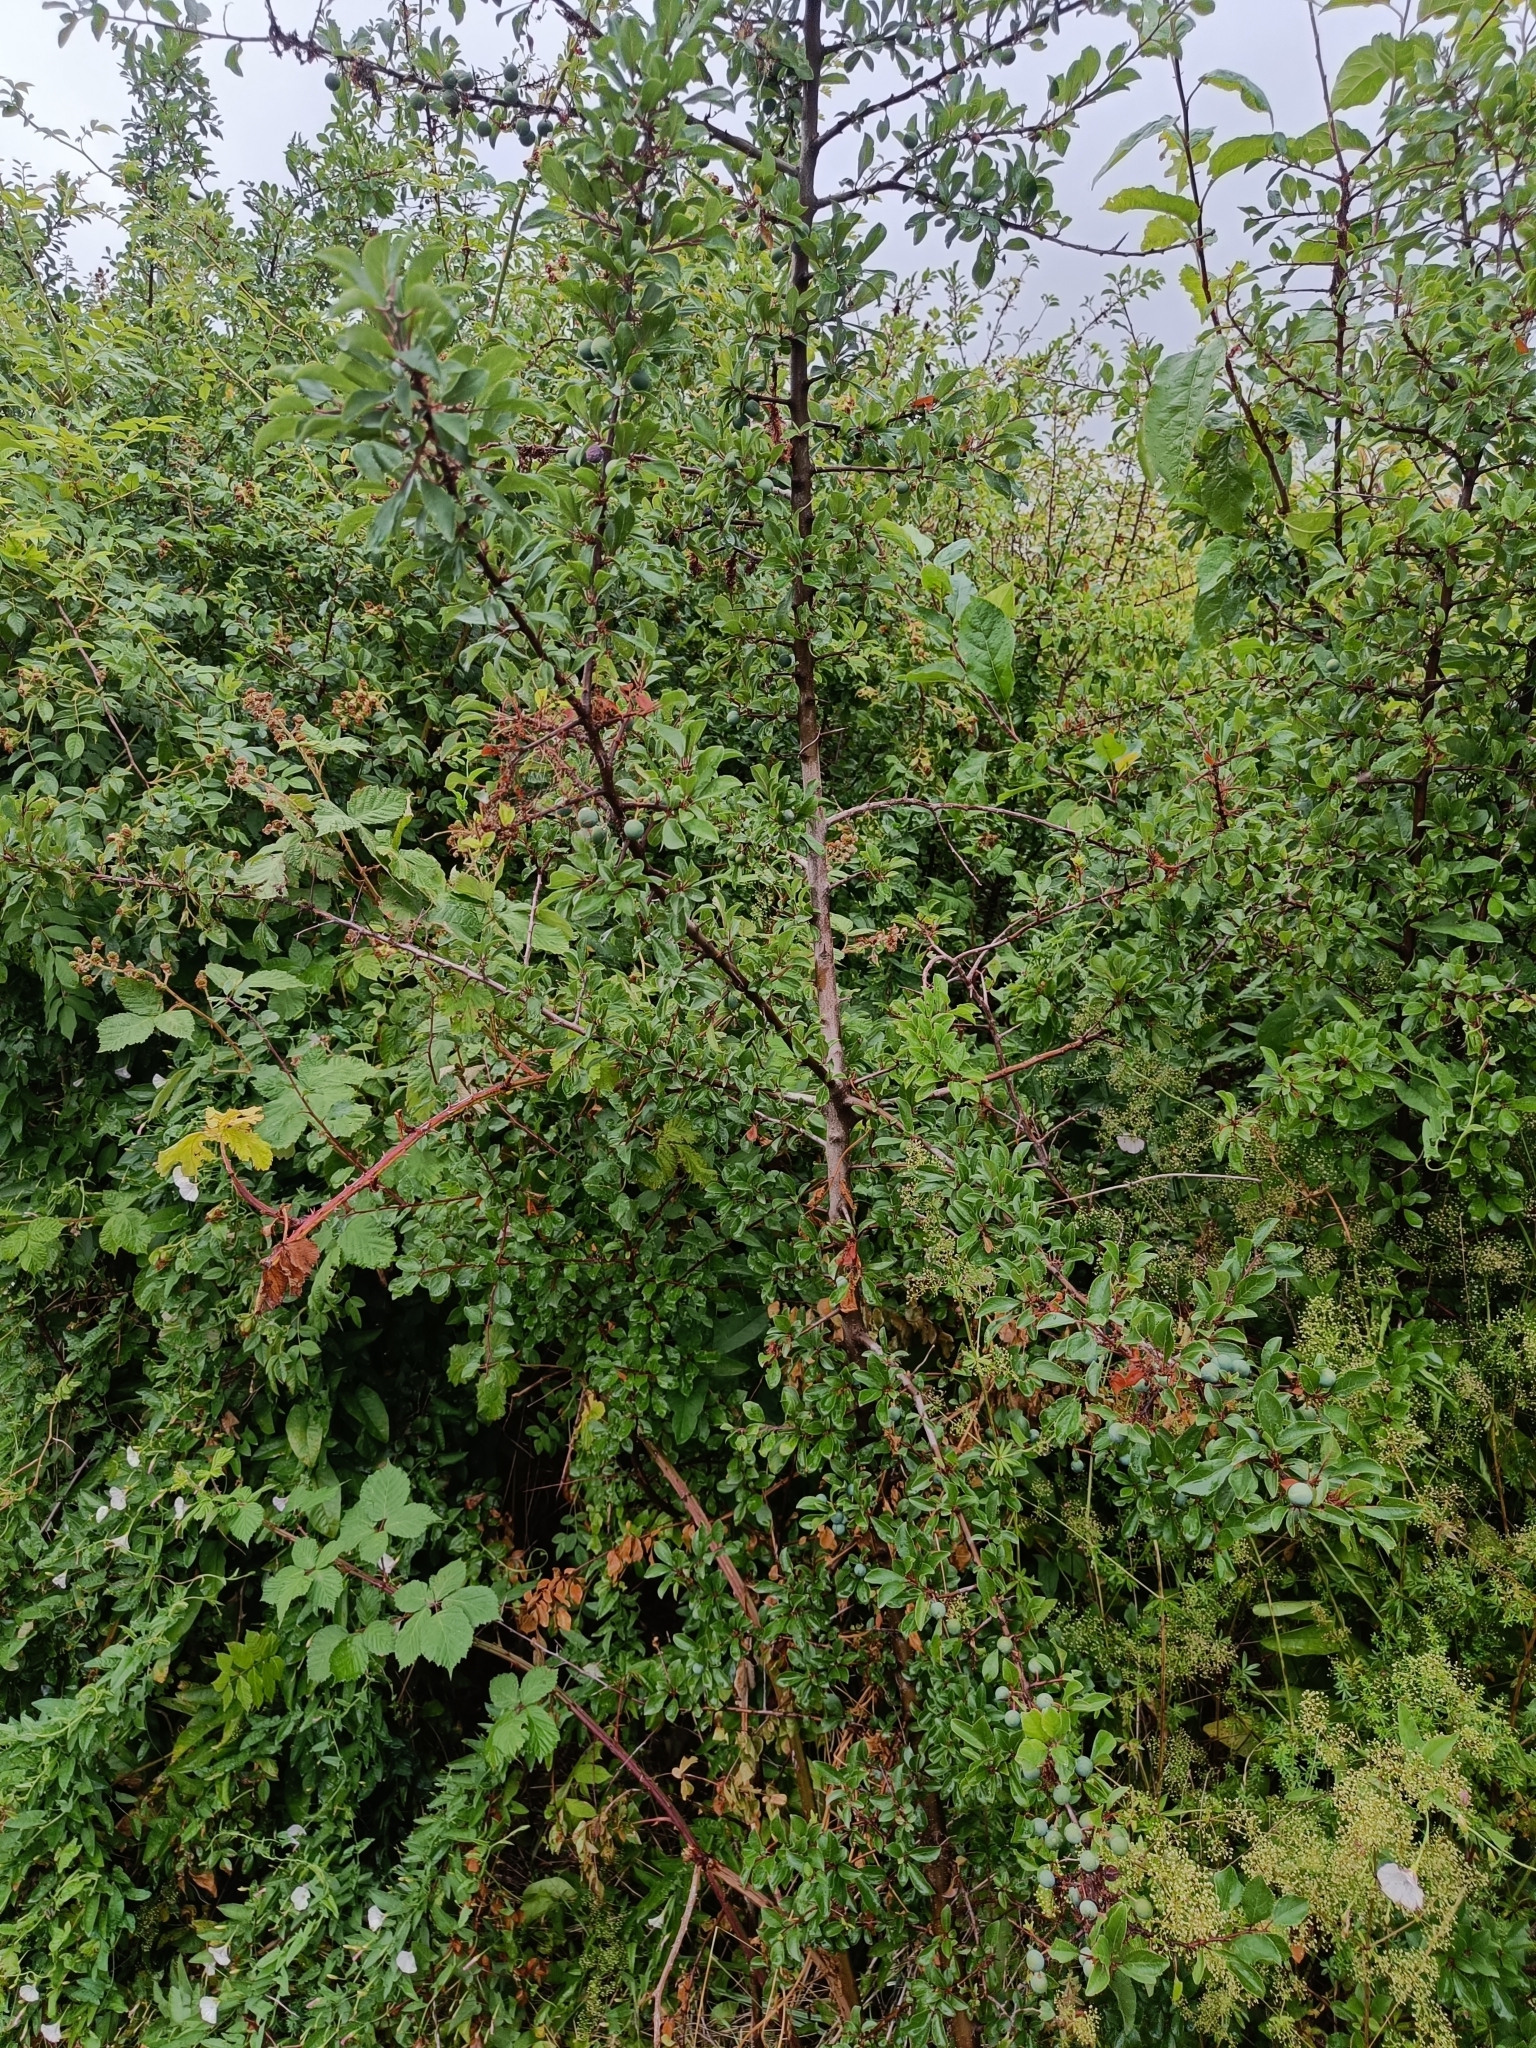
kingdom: Plantae
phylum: Tracheophyta
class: Magnoliopsida
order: Rosales
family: Rosaceae
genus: Prunus
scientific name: Prunus spinosa
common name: Blackthorn
